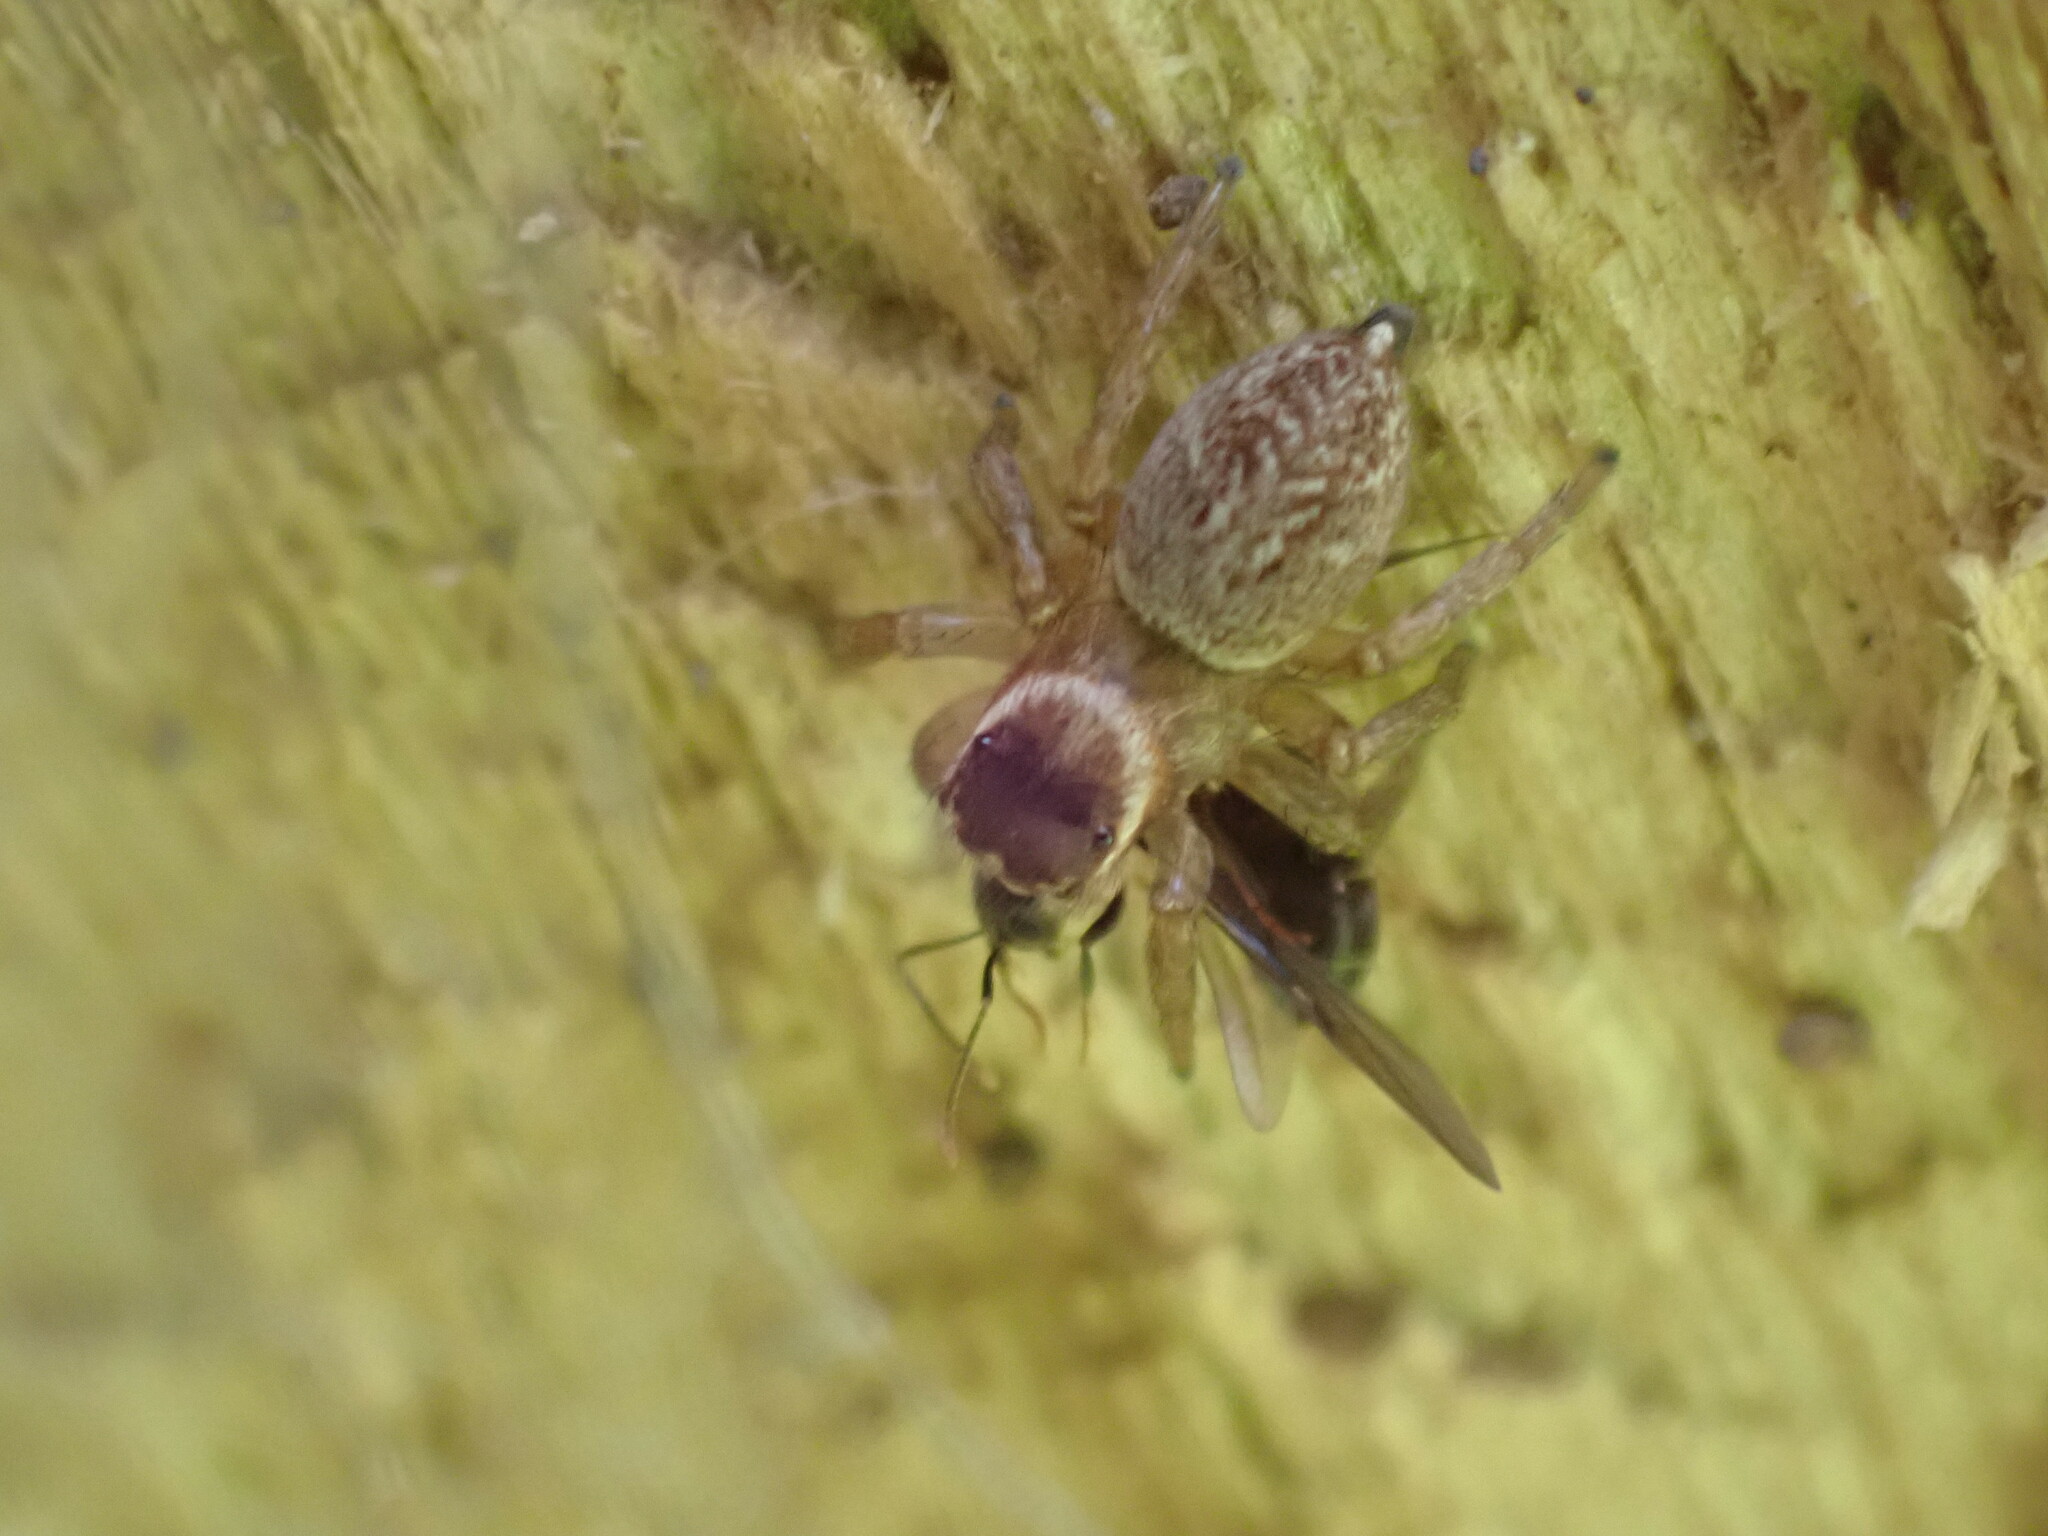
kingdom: Animalia
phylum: Arthropoda
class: Arachnida
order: Araneae
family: Salticidae
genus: Maratus
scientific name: Maratus griseus
